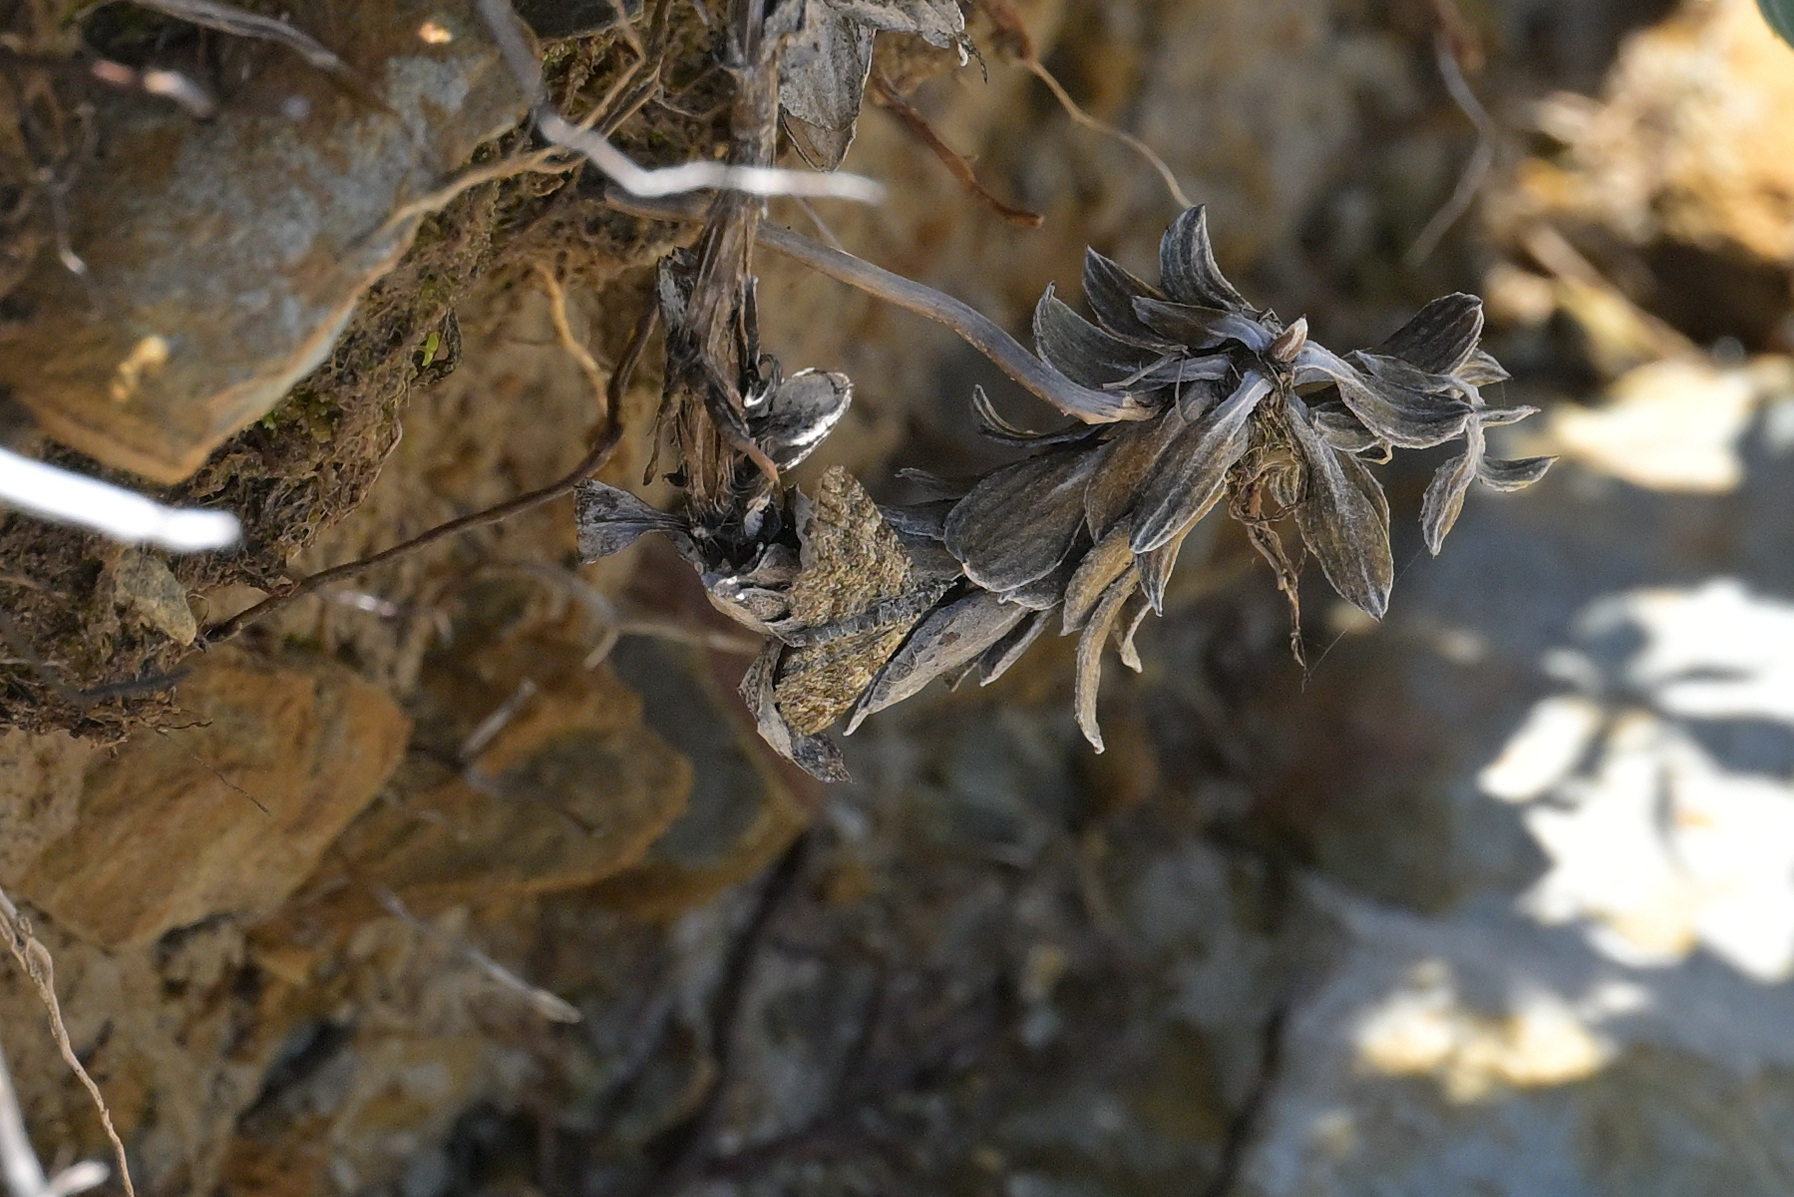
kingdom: Animalia
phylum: Arthropoda
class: Insecta
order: Lepidoptera
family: Geometridae
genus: Chloroclystis
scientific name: Chloroclystis nereis
